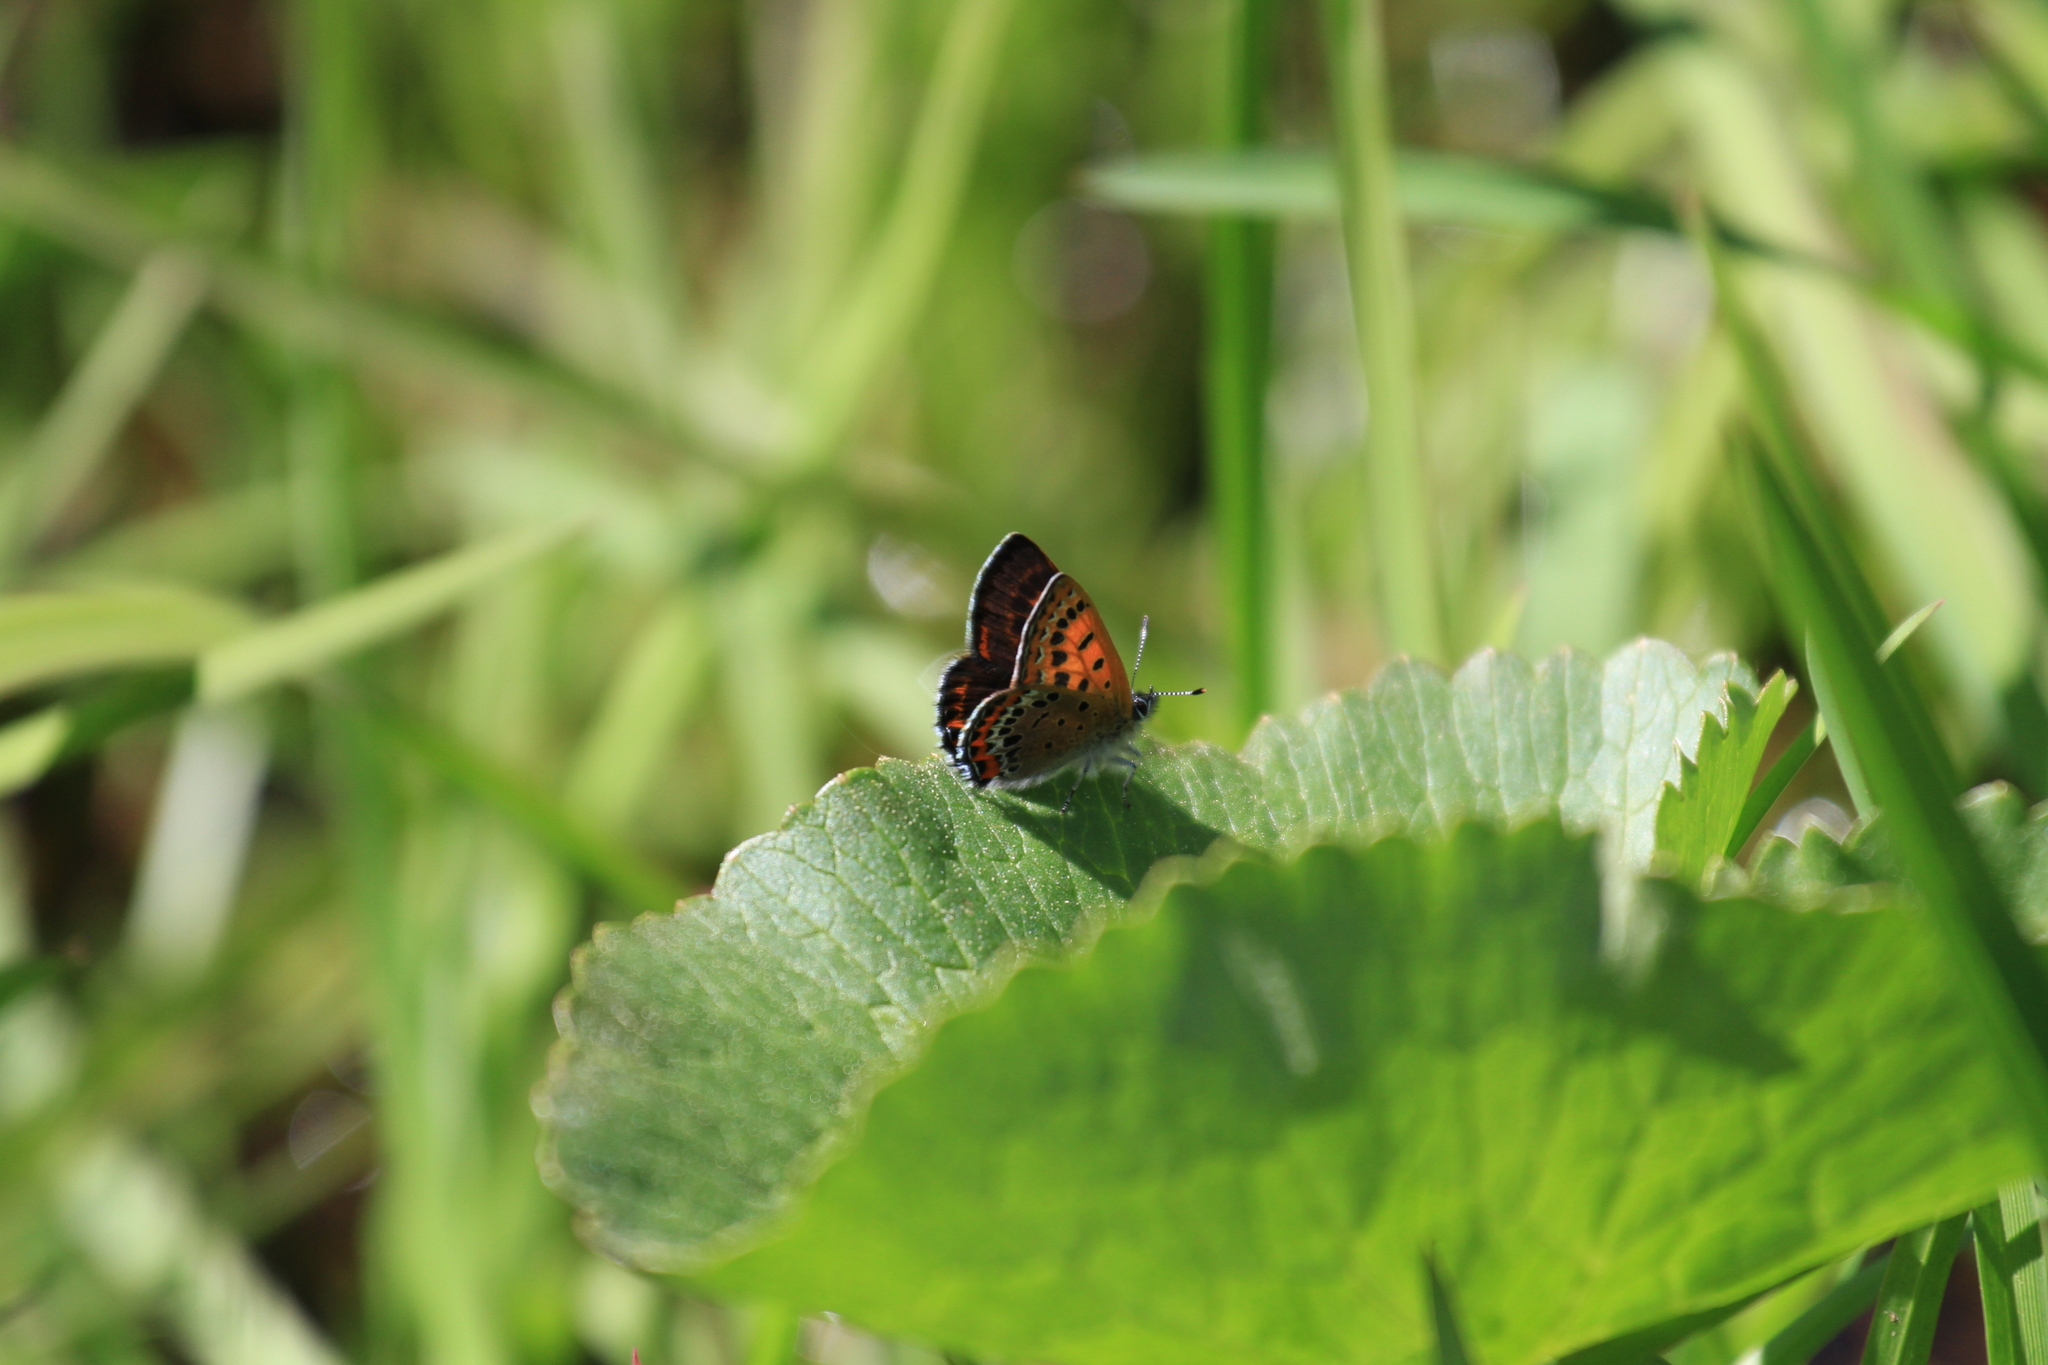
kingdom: Animalia
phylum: Arthropoda
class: Insecta
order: Lepidoptera
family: Lycaenidae
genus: Helleia
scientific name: Helleia helle
